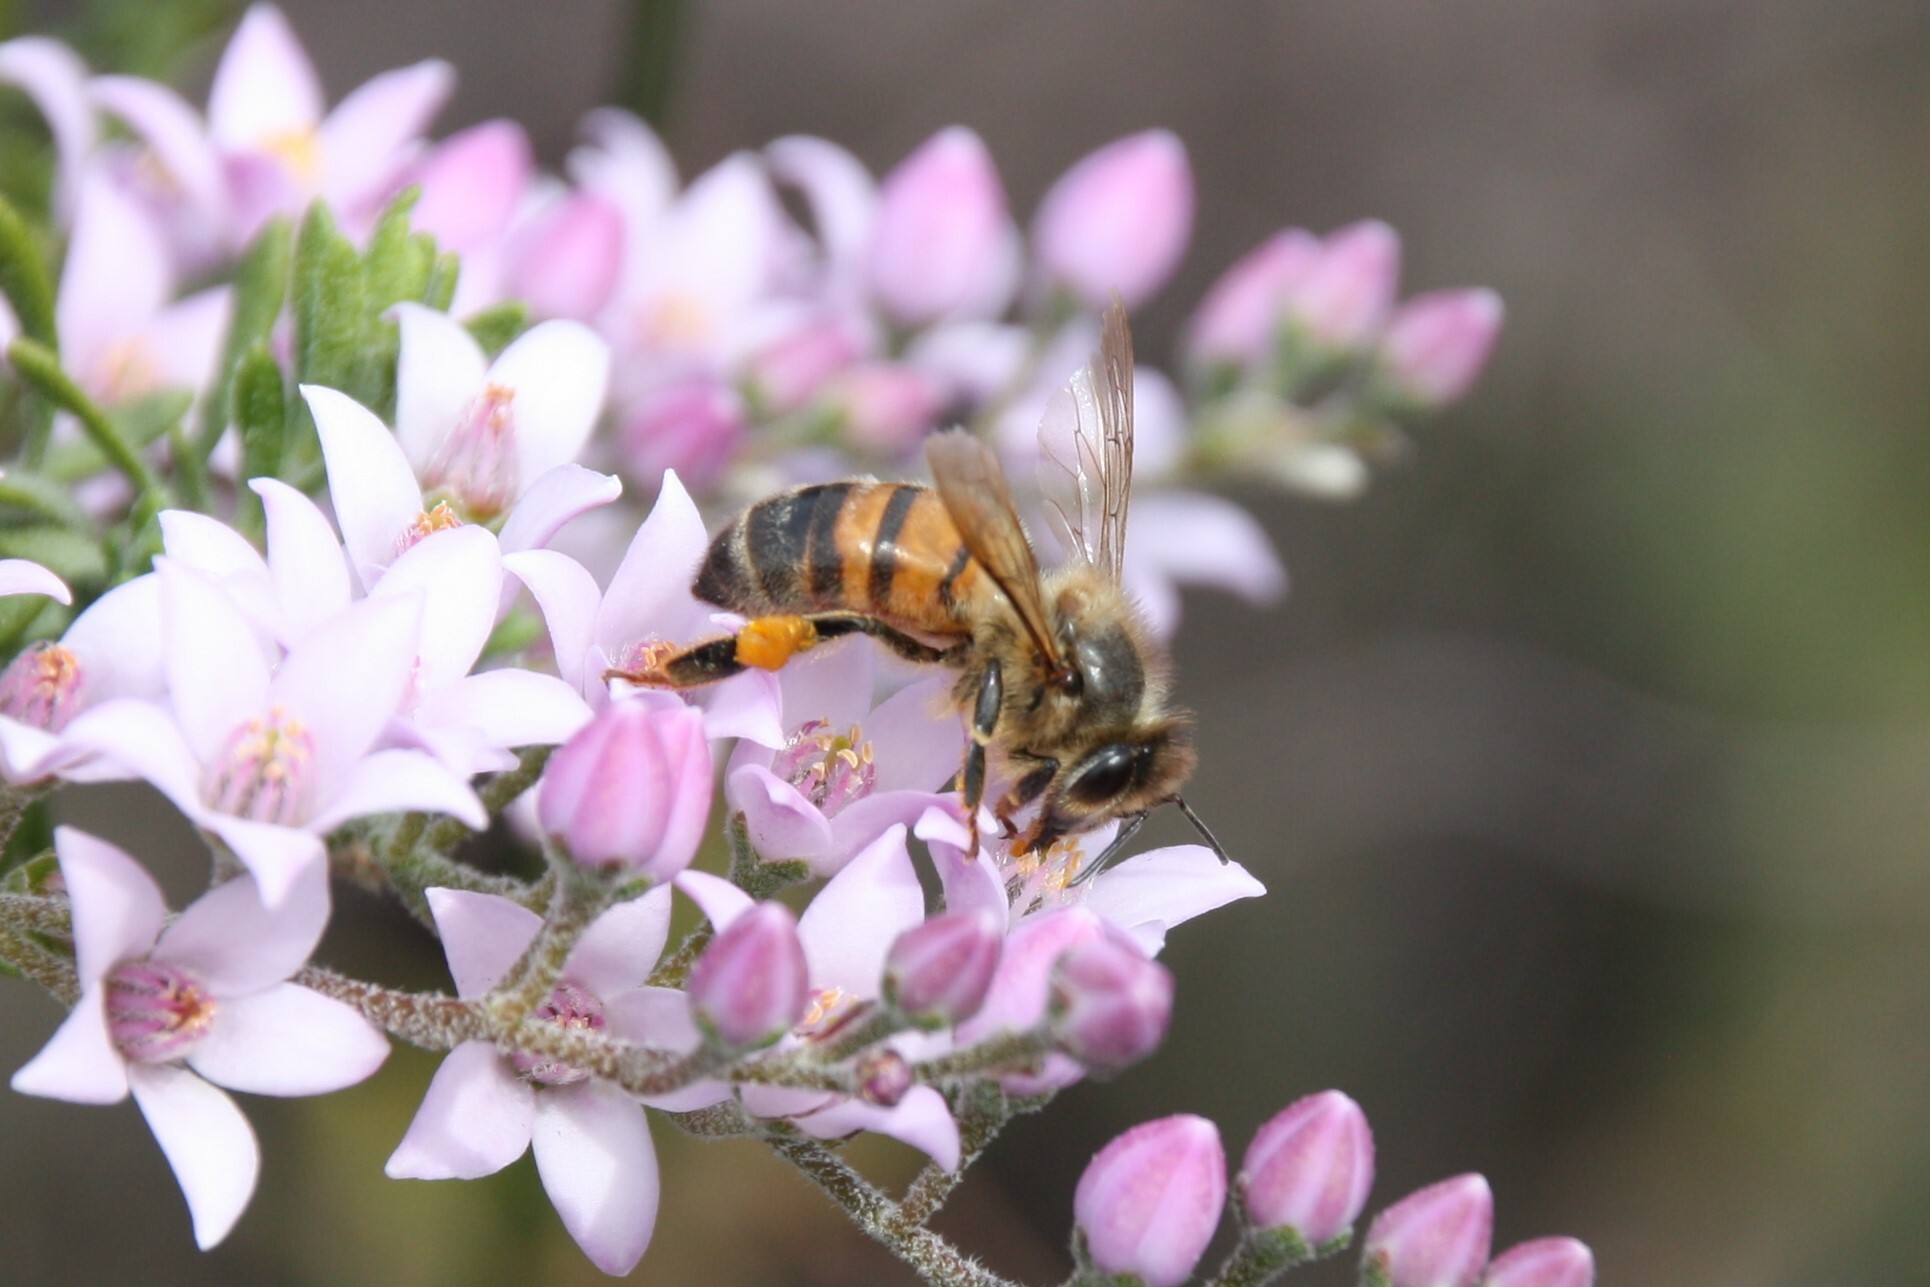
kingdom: Animalia
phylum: Arthropoda
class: Insecta
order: Hymenoptera
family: Apidae
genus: Apis
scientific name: Apis mellifera
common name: Honey bee
